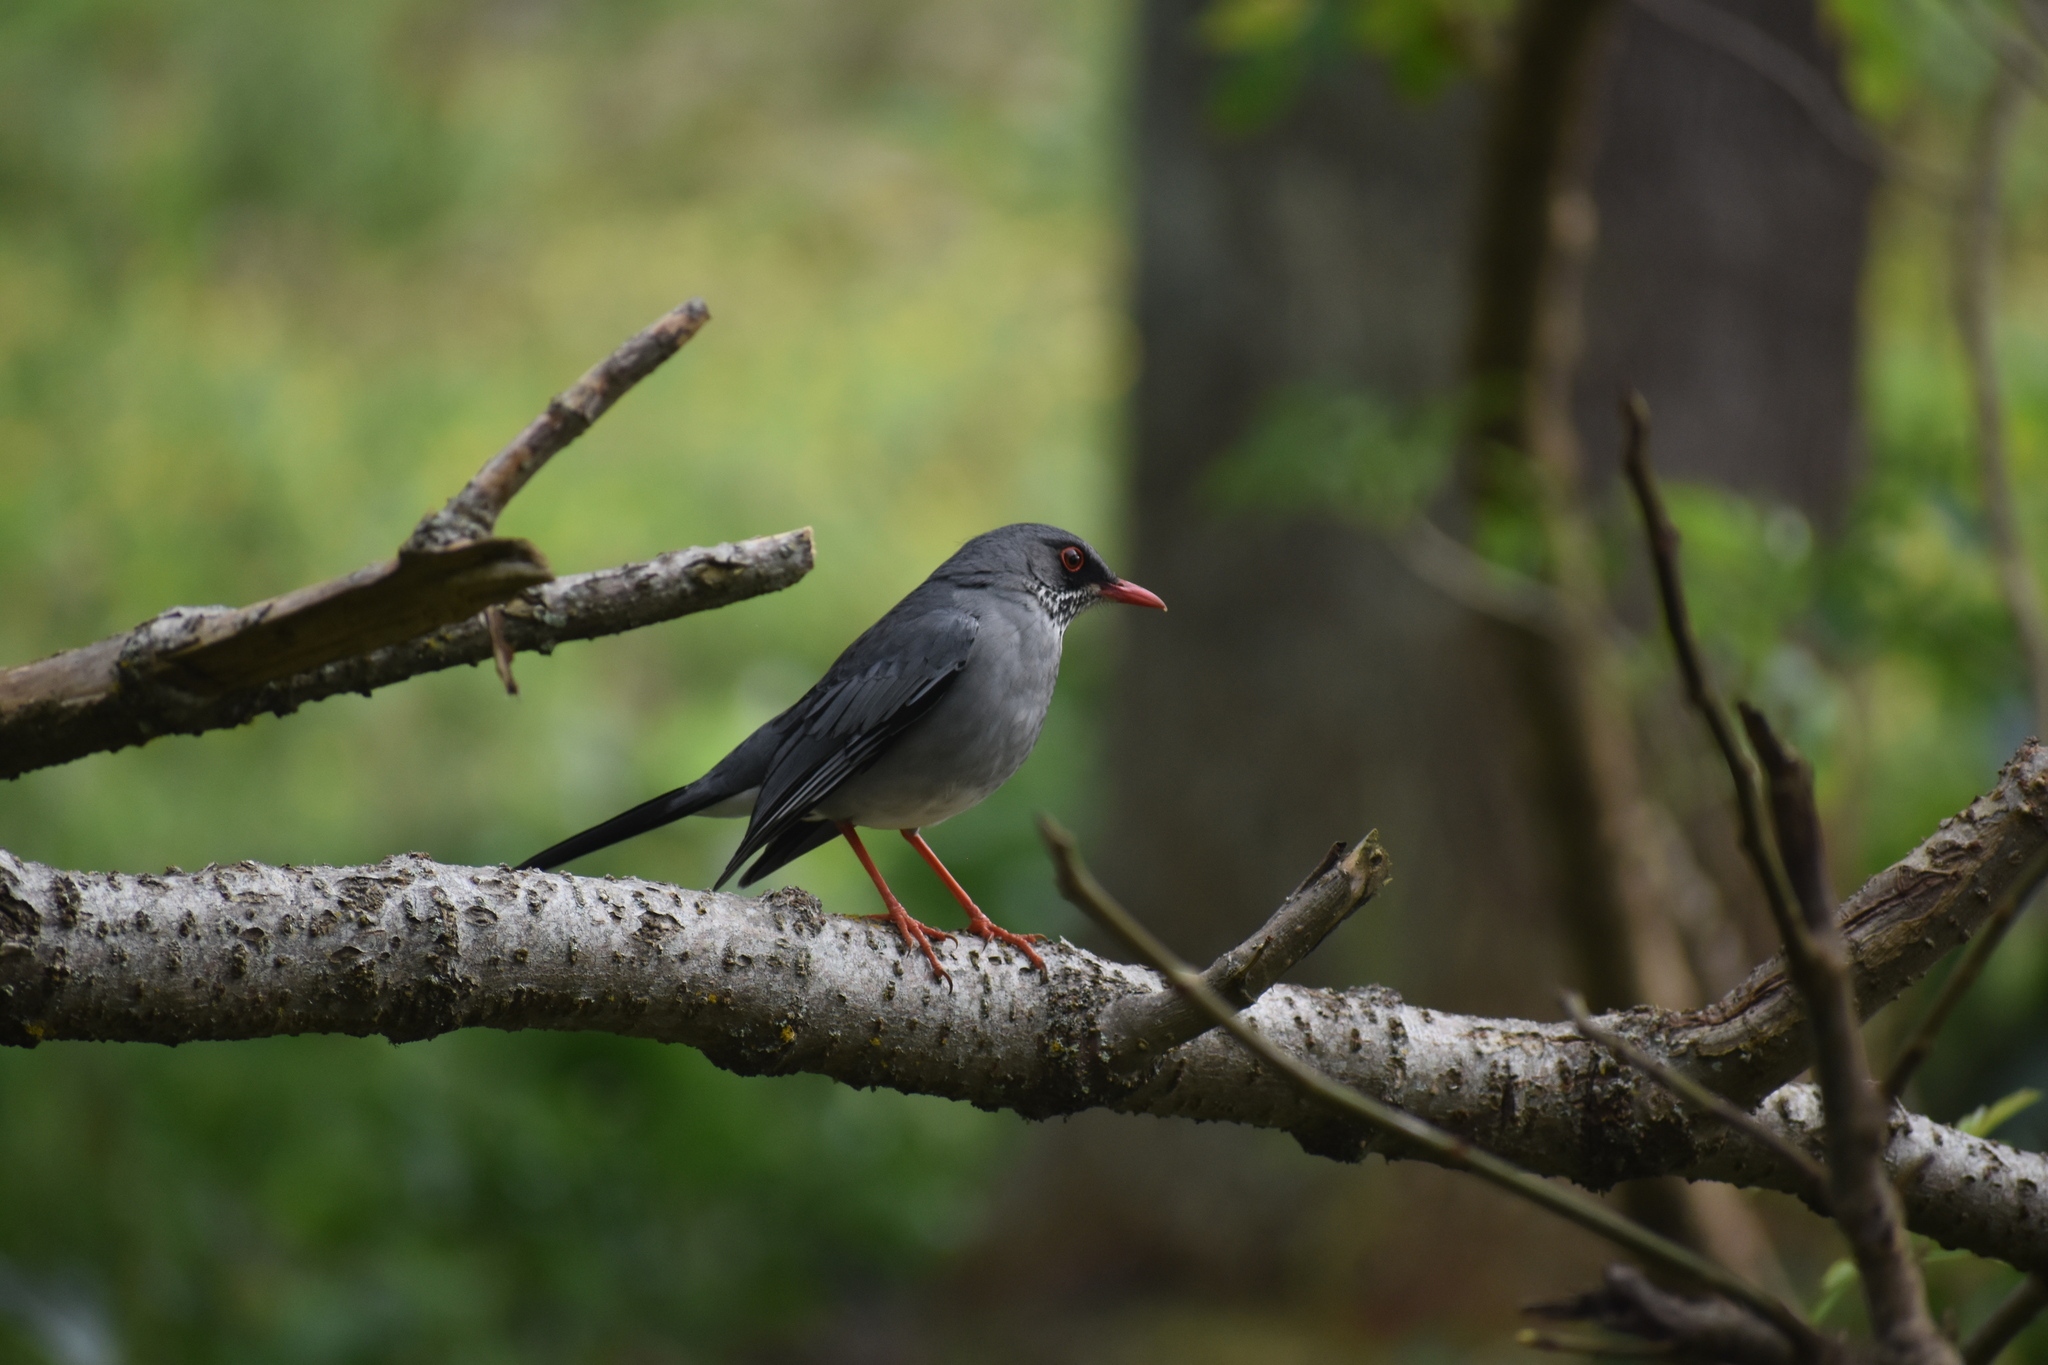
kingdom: Animalia
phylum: Chordata
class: Aves
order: Passeriformes
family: Turdidae
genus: Turdus
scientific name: Turdus plumbeus
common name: Red-legged thrush
